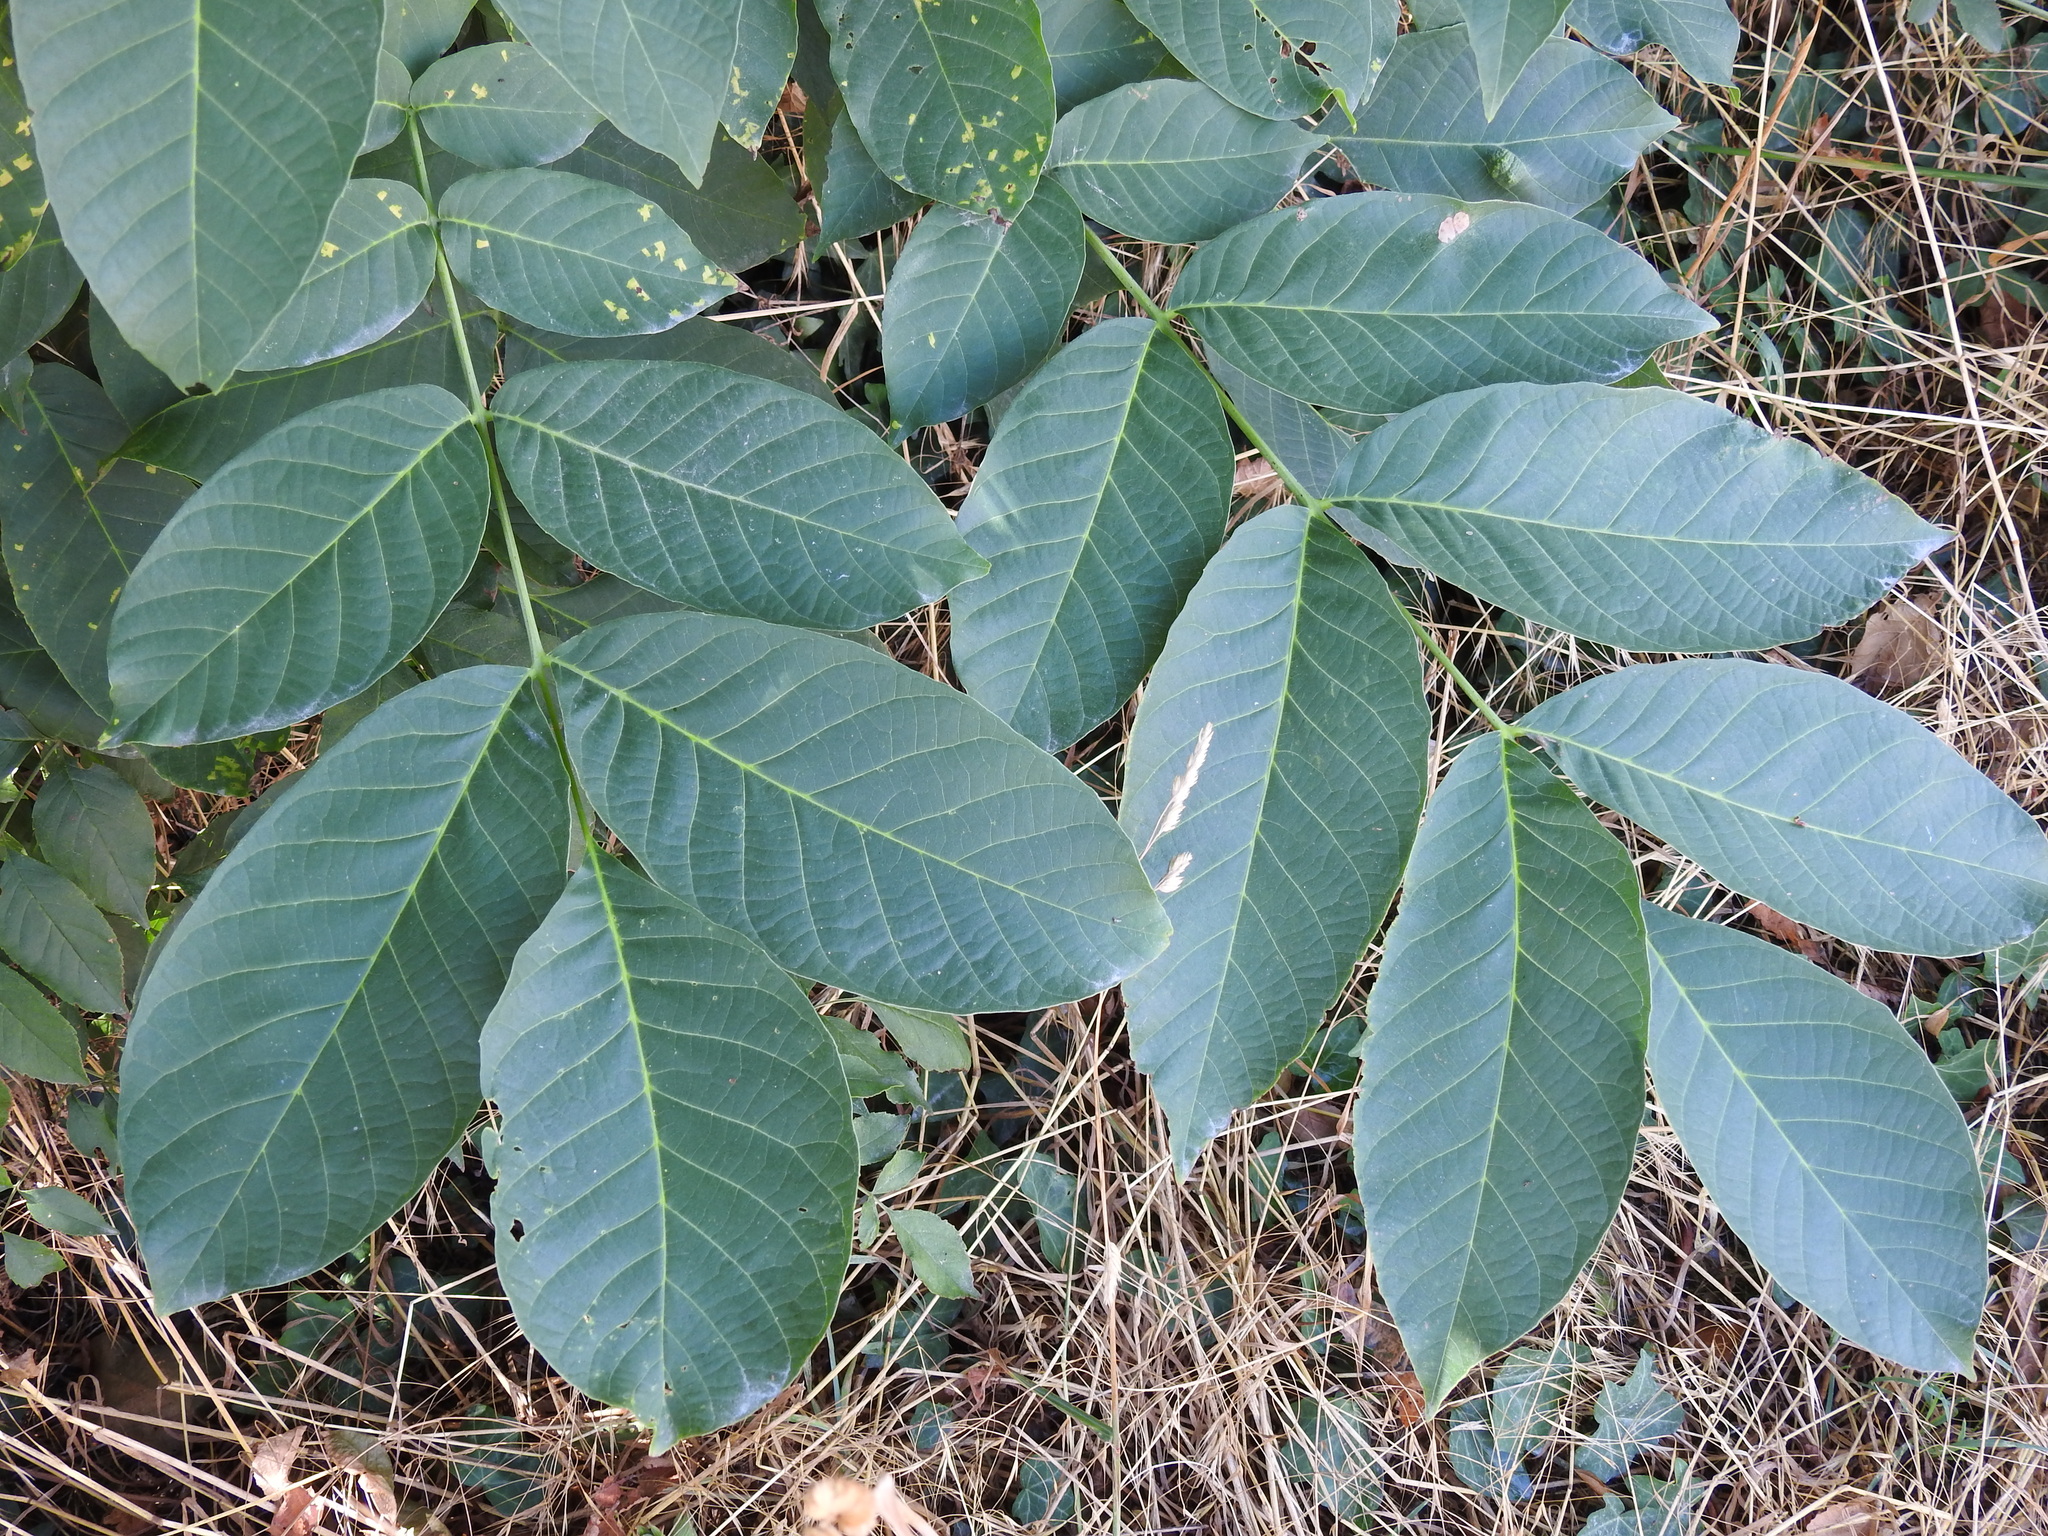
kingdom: Plantae
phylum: Tracheophyta
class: Magnoliopsida
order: Fagales
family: Juglandaceae
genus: Juglans
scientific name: Juglans regia
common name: Walnut
